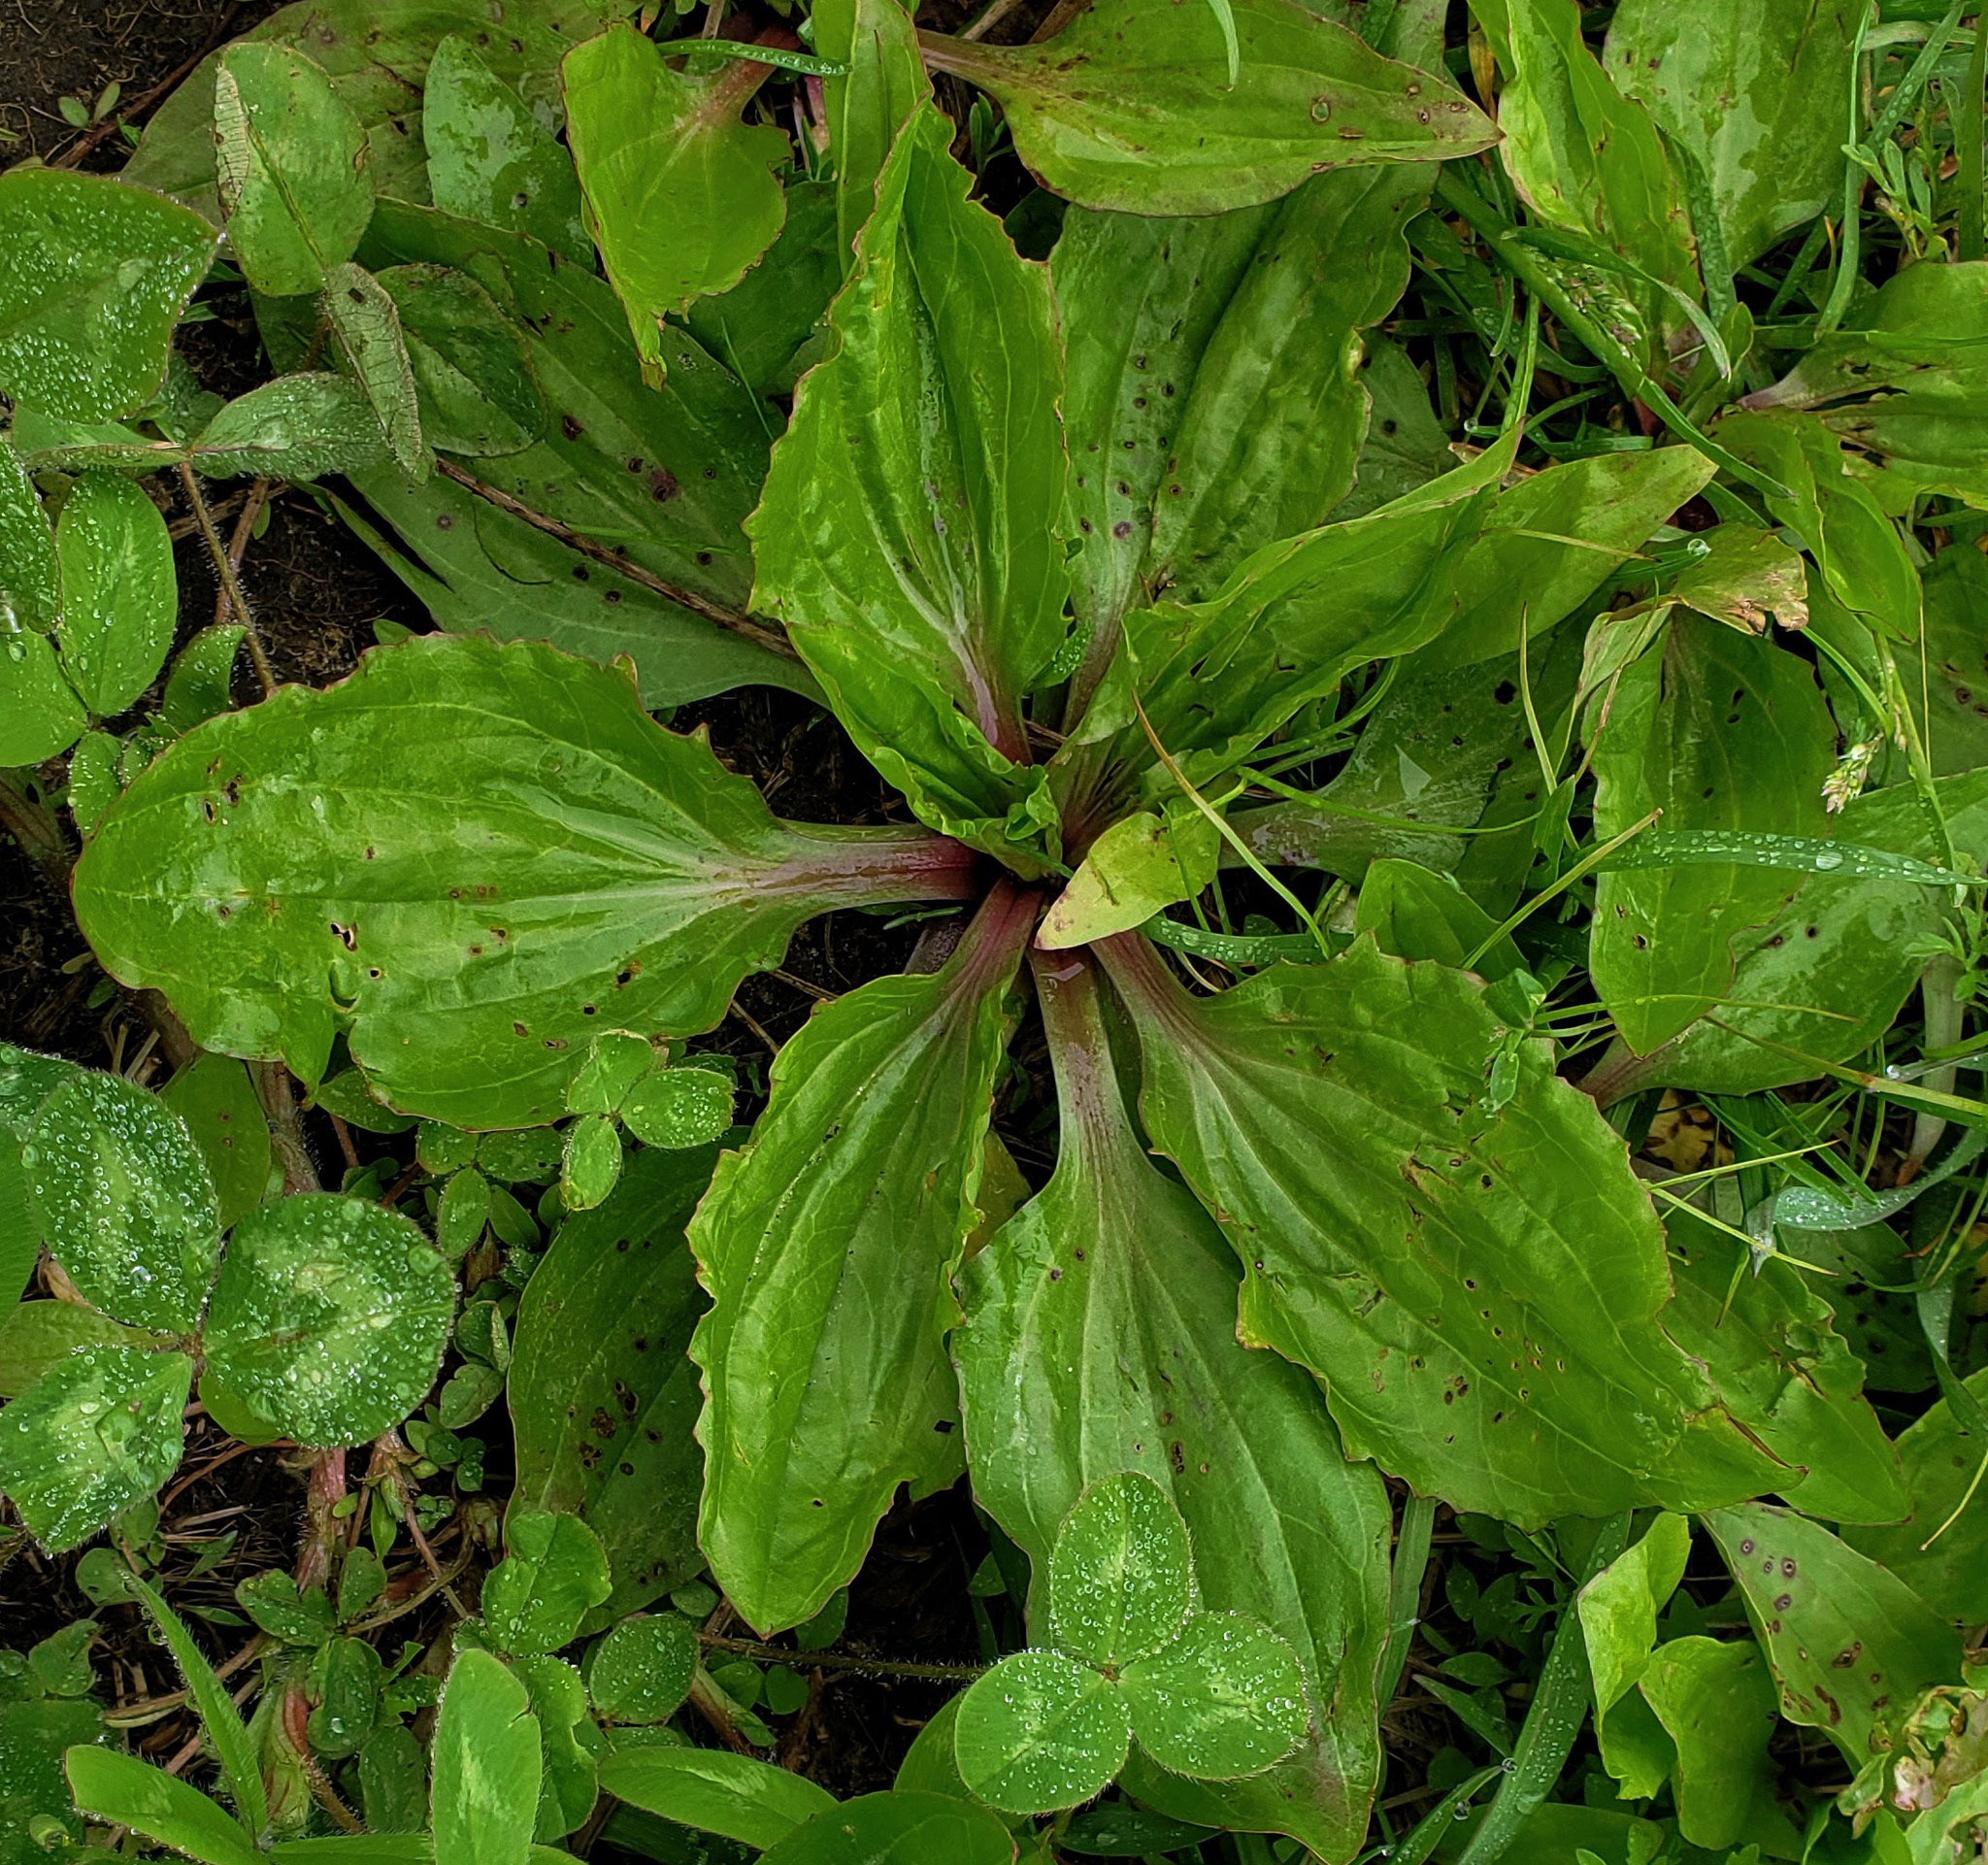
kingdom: Plantae
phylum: Tracheophyta
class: Magnoliopsida
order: Lamiales
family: Plantaginaceae
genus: Plantago
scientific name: Plantago rugelii
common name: American plantain
